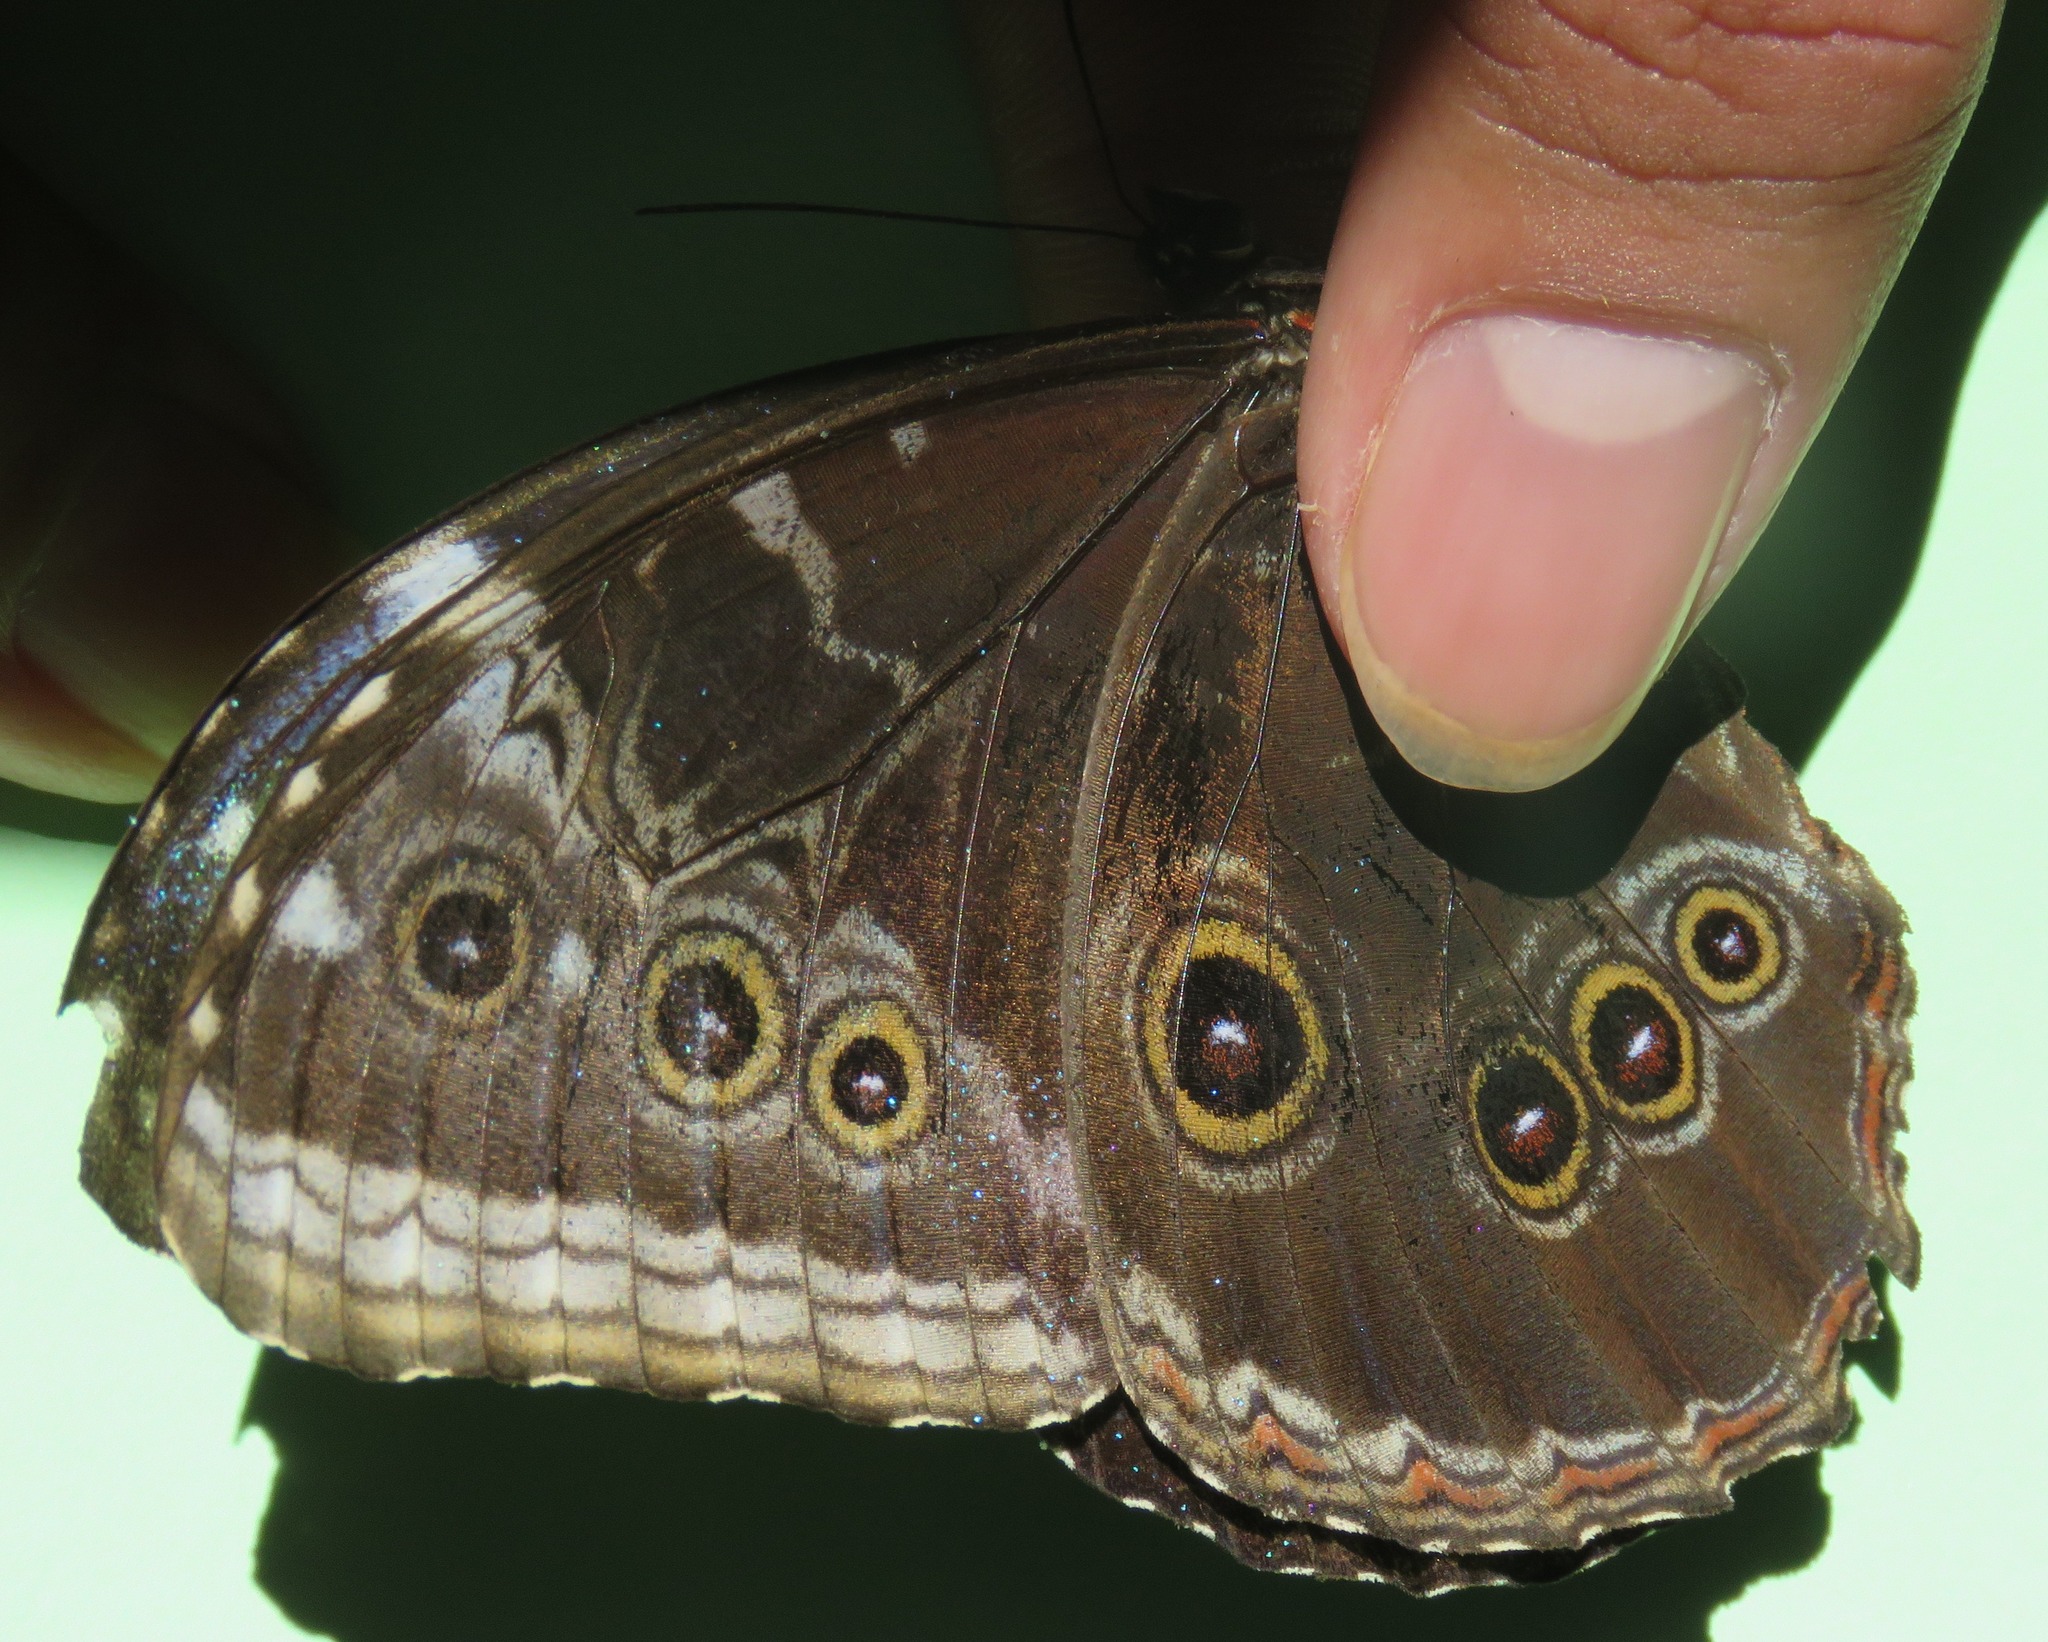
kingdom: Animalia
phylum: Arthropoda
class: Insecta
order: Lepidoptera
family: Nymphalidae
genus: Morpho
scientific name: Morpho helenor
